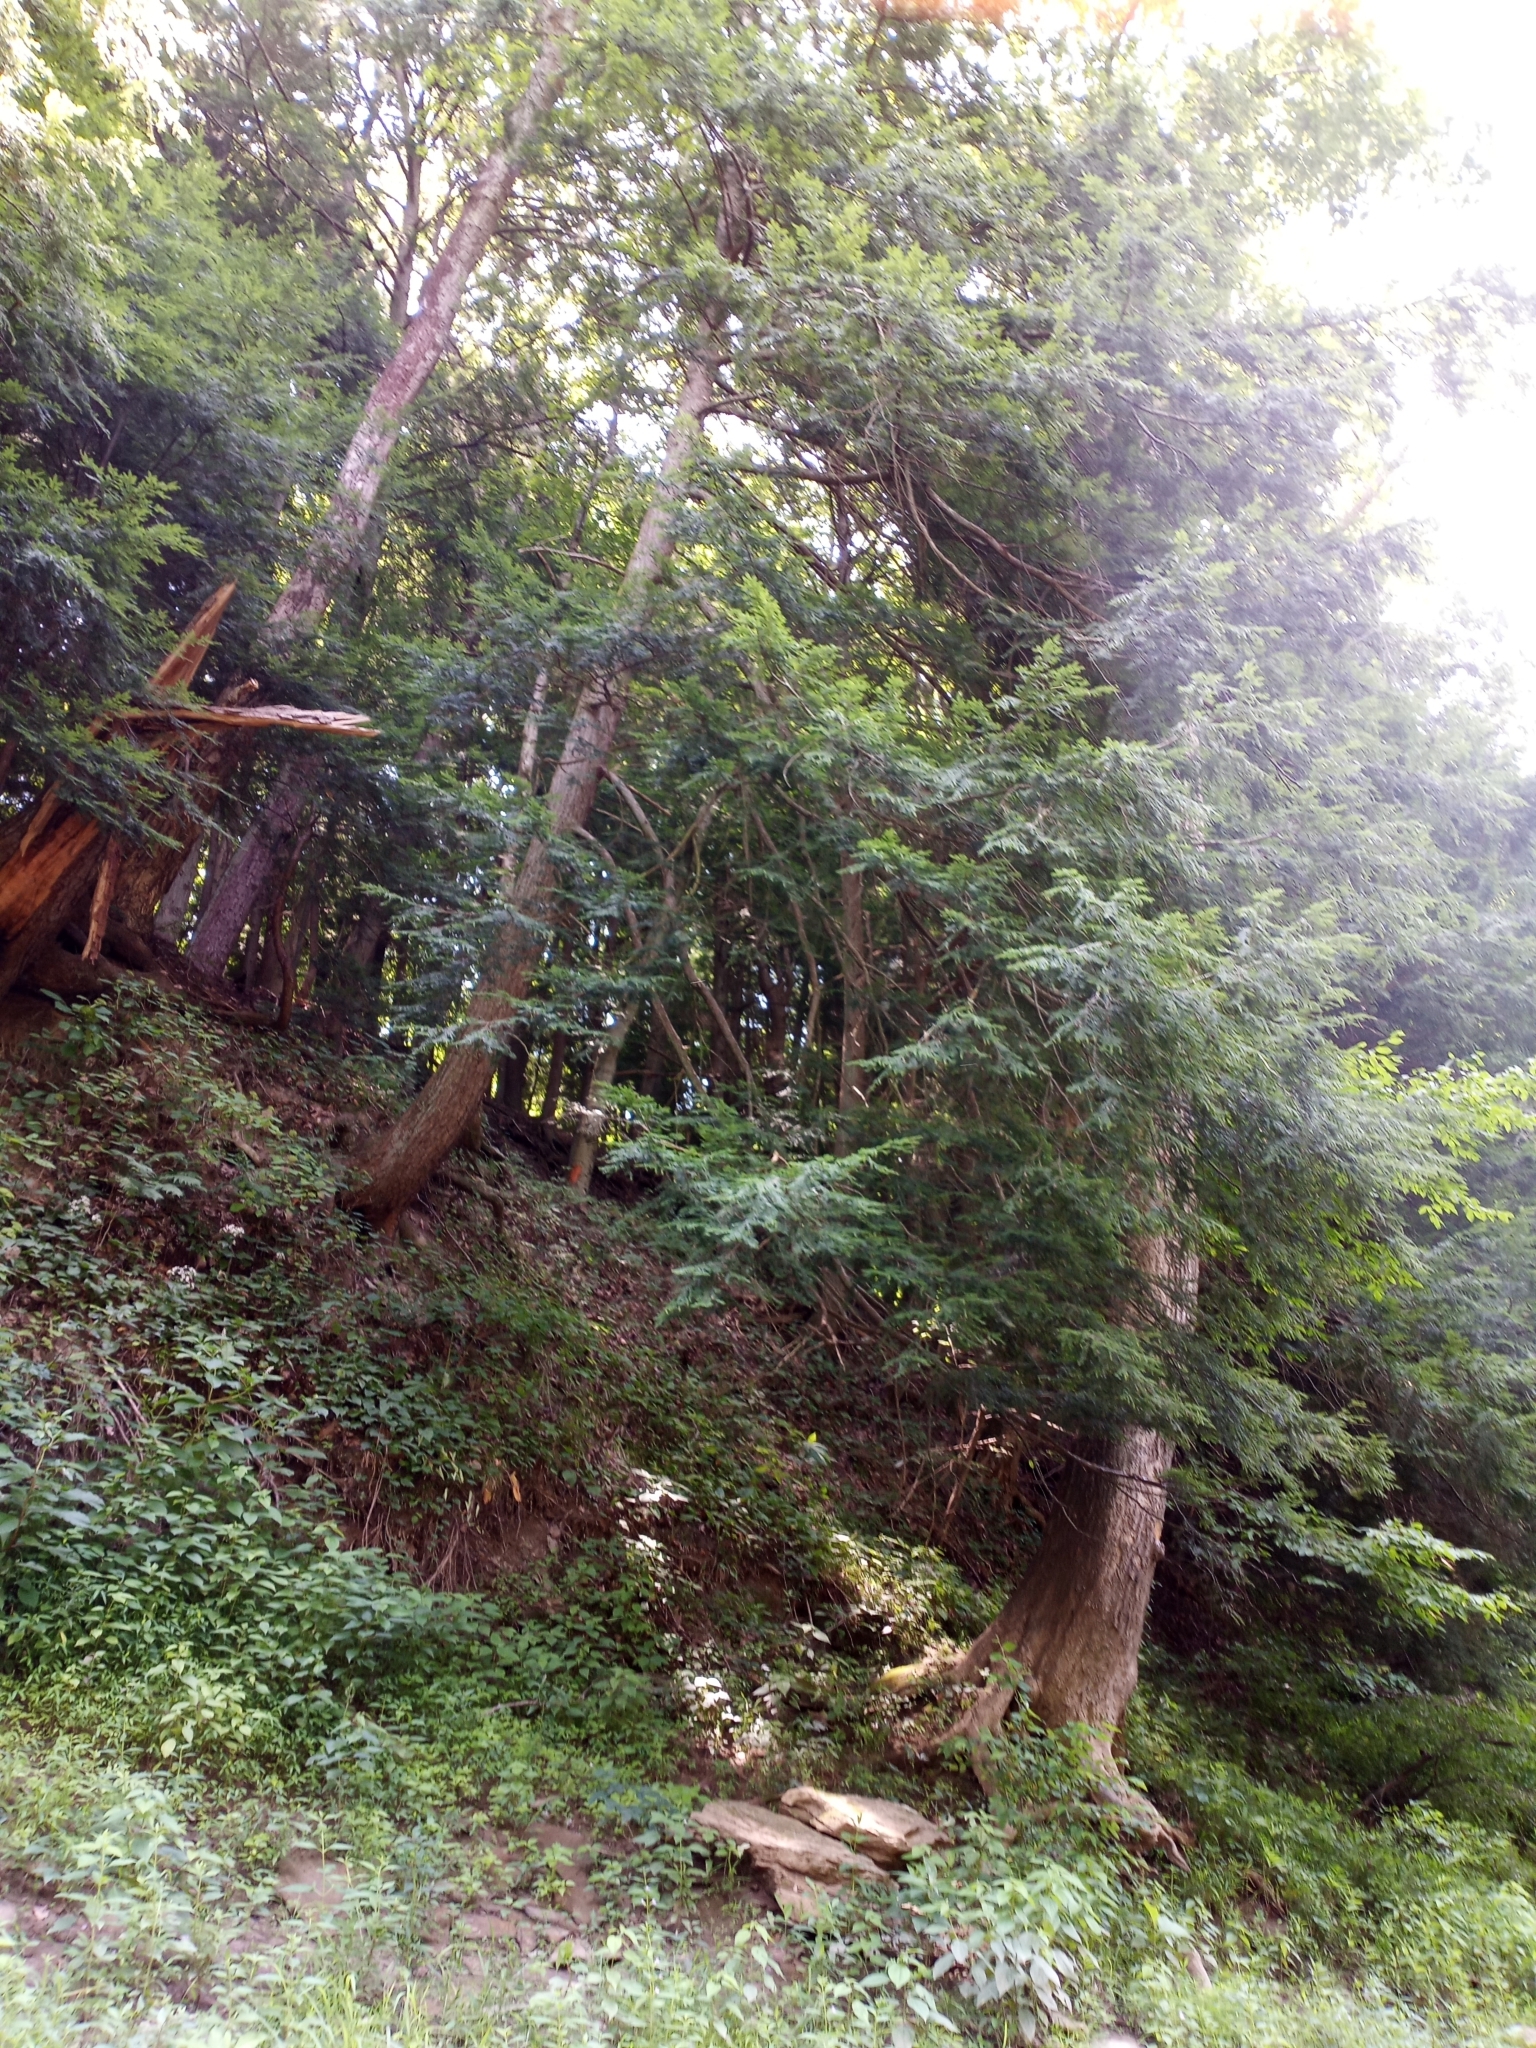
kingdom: Plantae
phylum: Tracheophyta
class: Pinopsida
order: Pinales
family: Pinaceae
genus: Tsuga
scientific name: Tsuga canadensis
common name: Eastern hemlock
